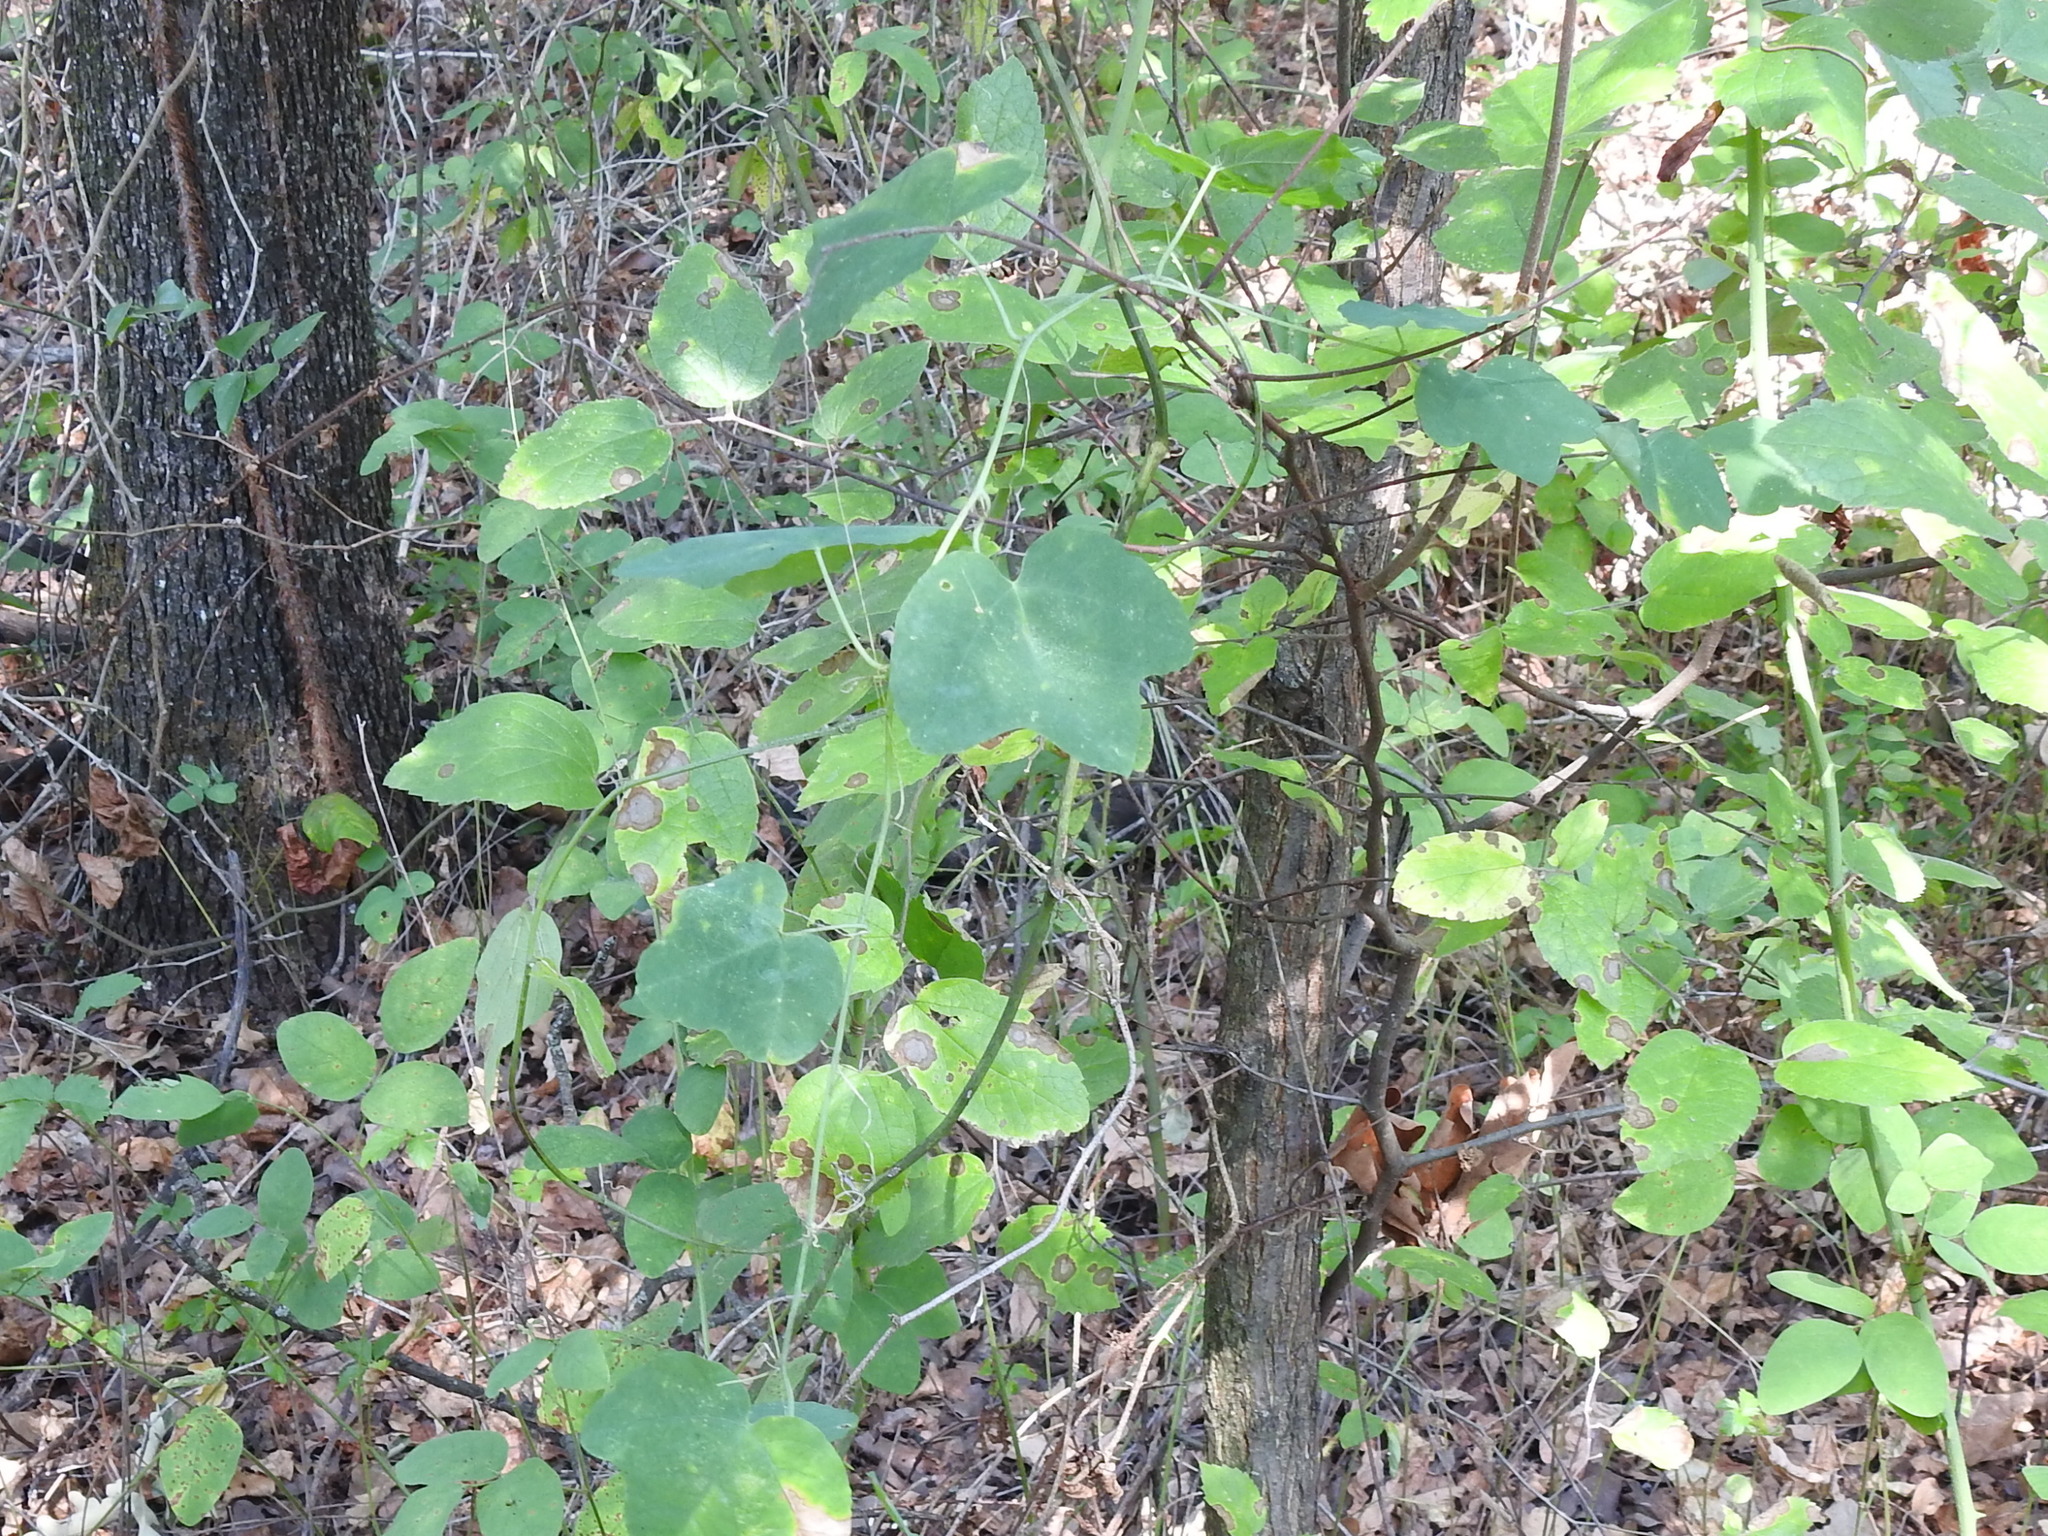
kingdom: Plantae
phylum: Tracheophyta
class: Magnoliopsida
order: Malpighiales
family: Passifloraceae
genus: Passiflora
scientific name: Passiflora lutea
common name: Yellow passionflower
